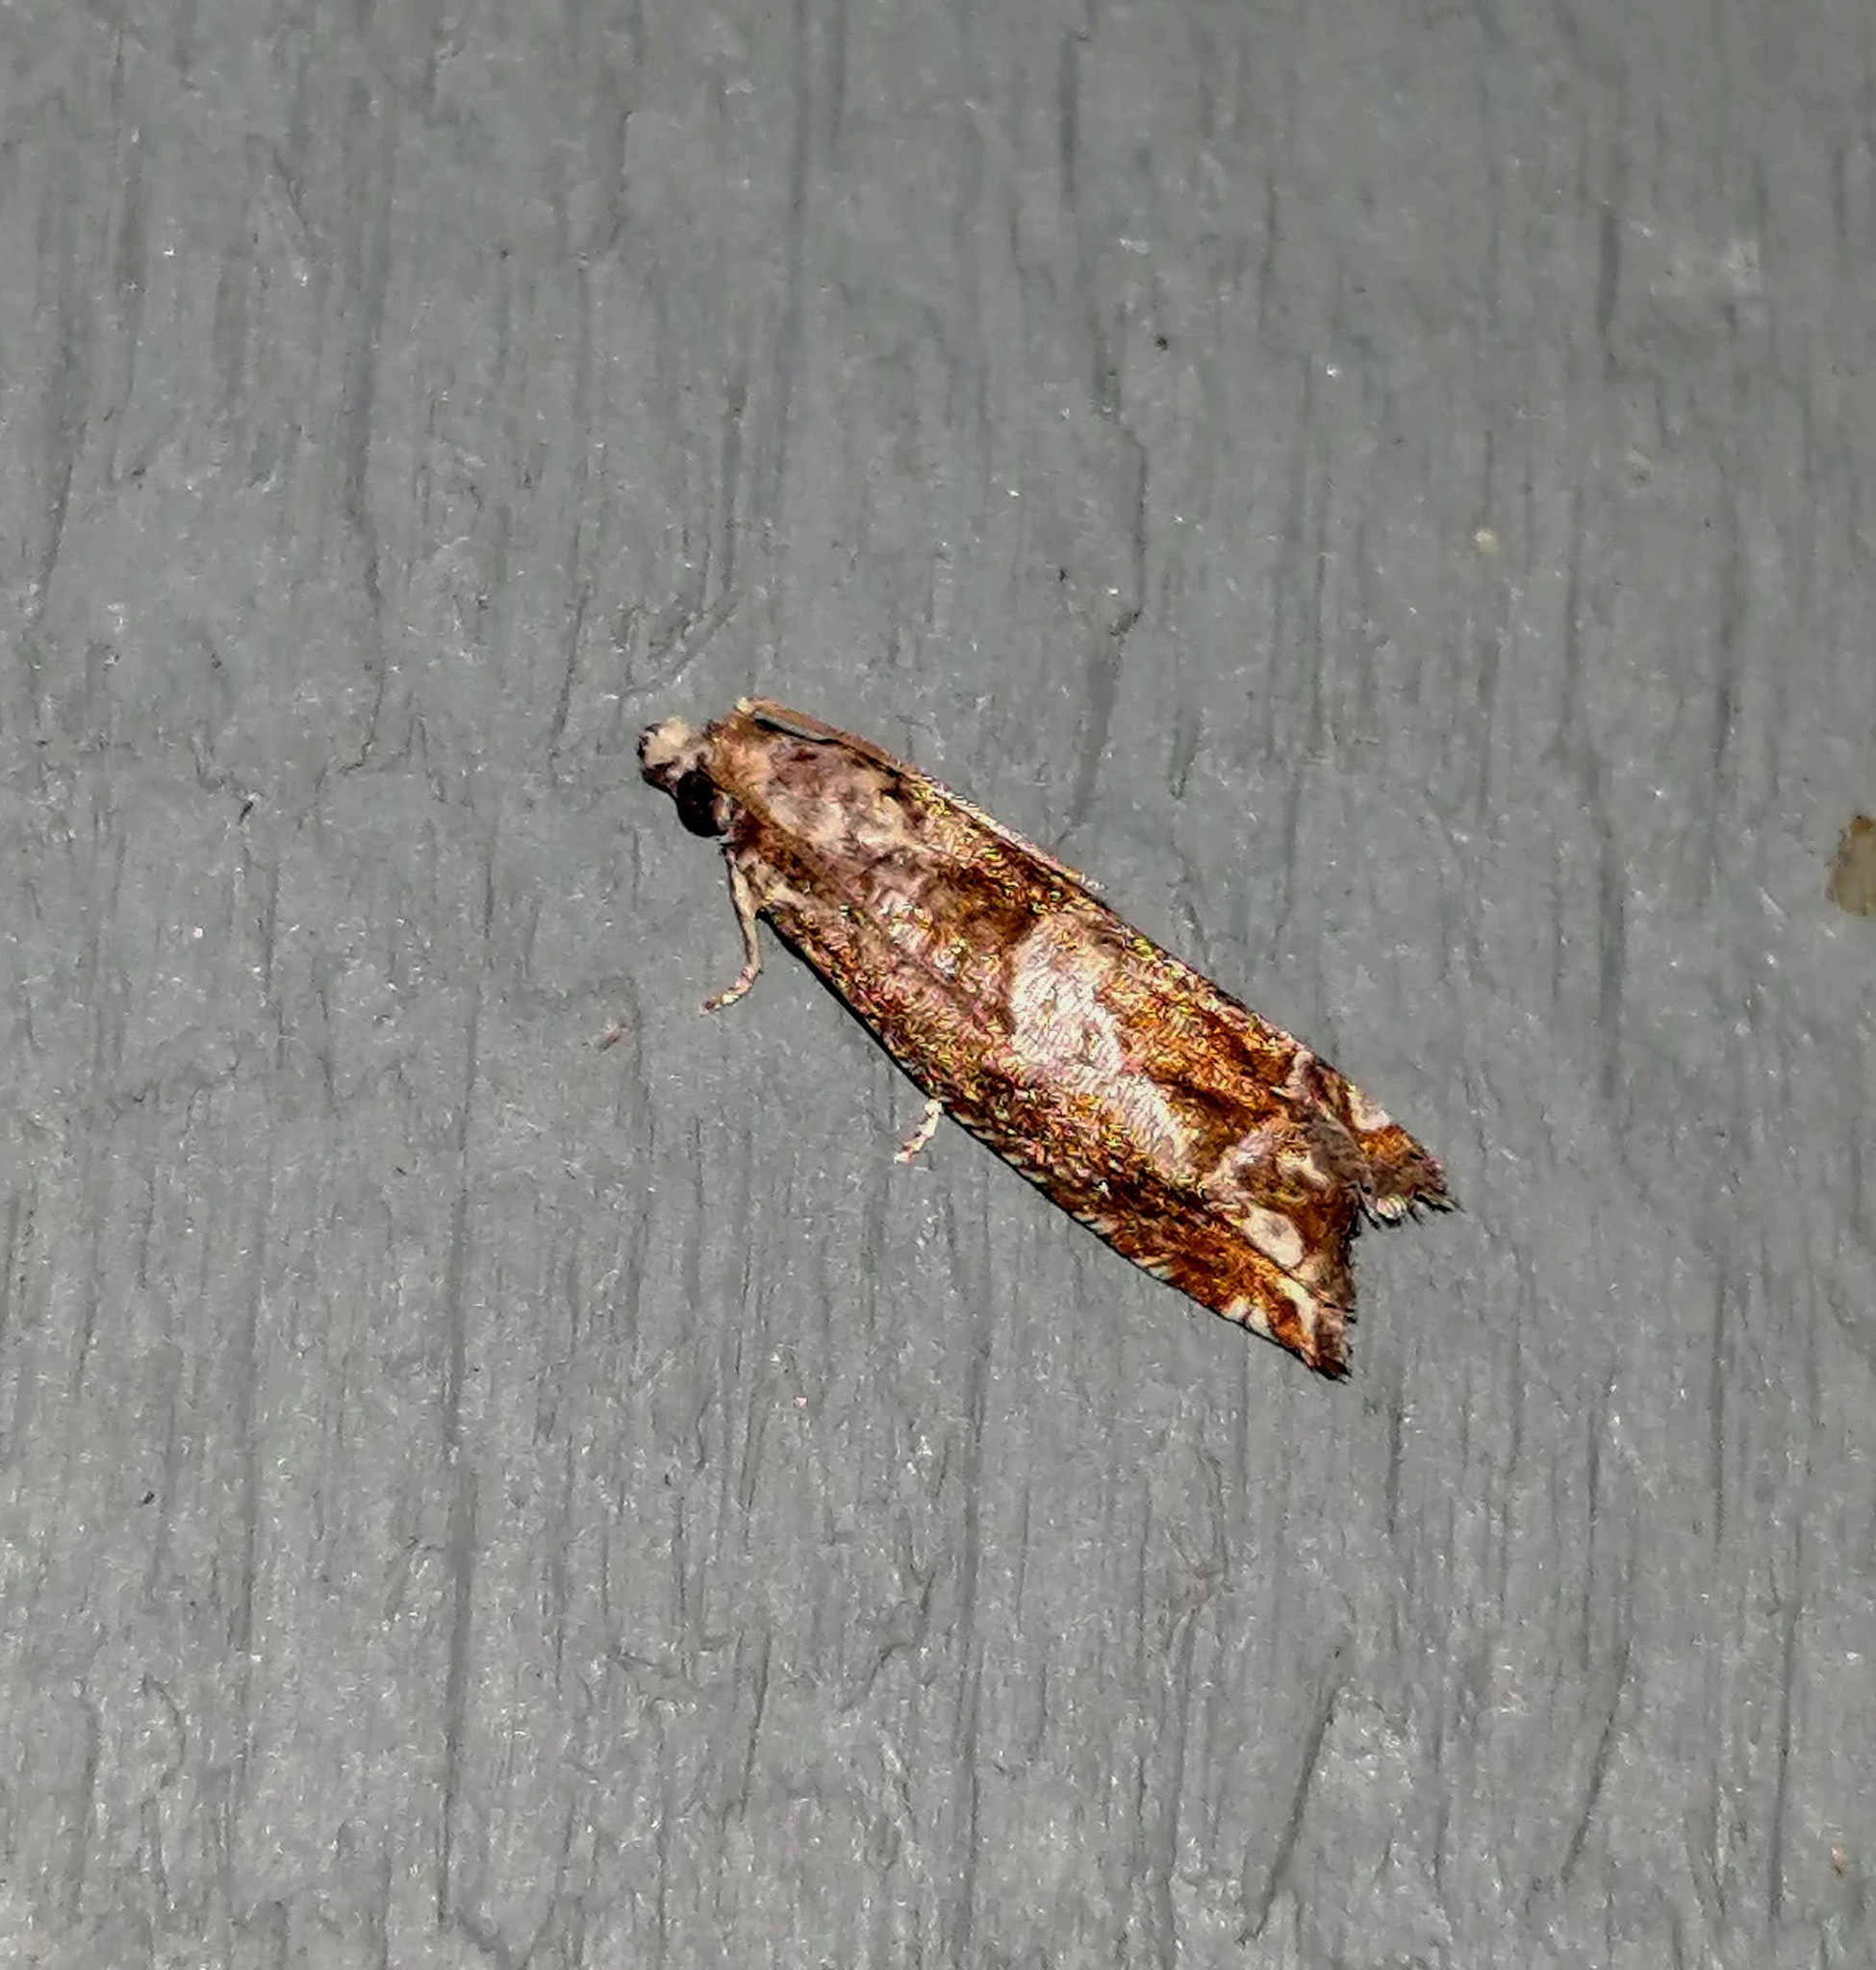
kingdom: Animalia
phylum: Arthropoda
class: Insecta
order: Lepidoptera
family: Tortricidae
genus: Sonia
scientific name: Sonia canadana
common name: Canadian sonia moth
